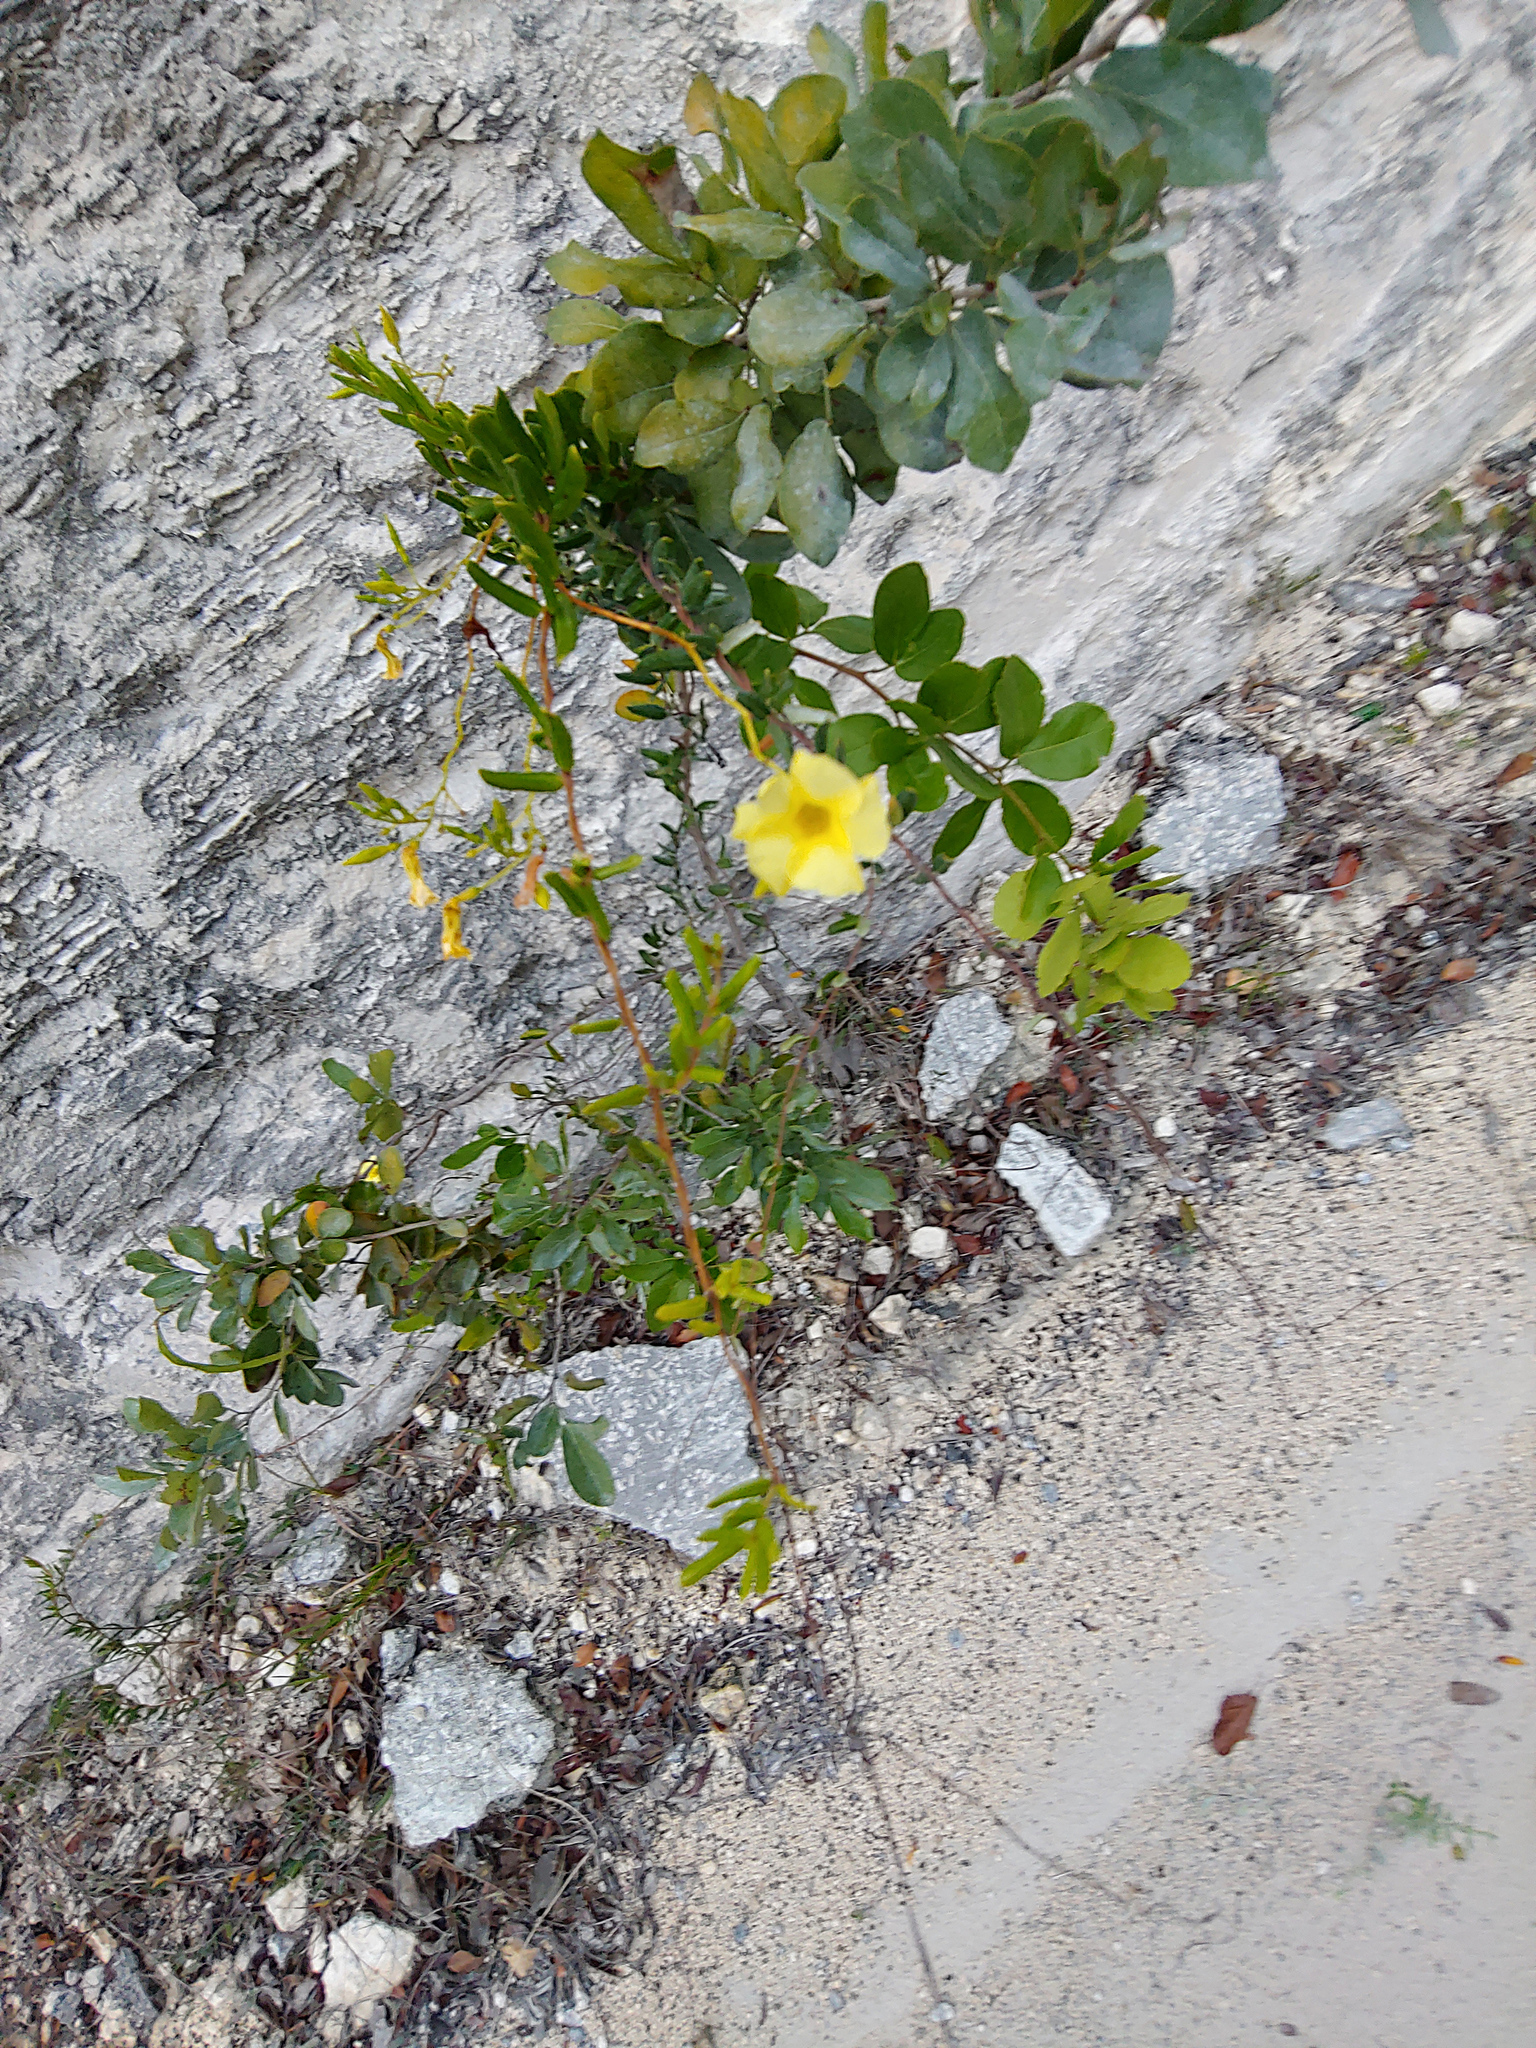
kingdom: Plantae
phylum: Tracheophyta
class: Magnoliopsida
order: Gentianales
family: Apocynaceae
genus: Pentalinon
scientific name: Pentalinon luteum
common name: Licebush
